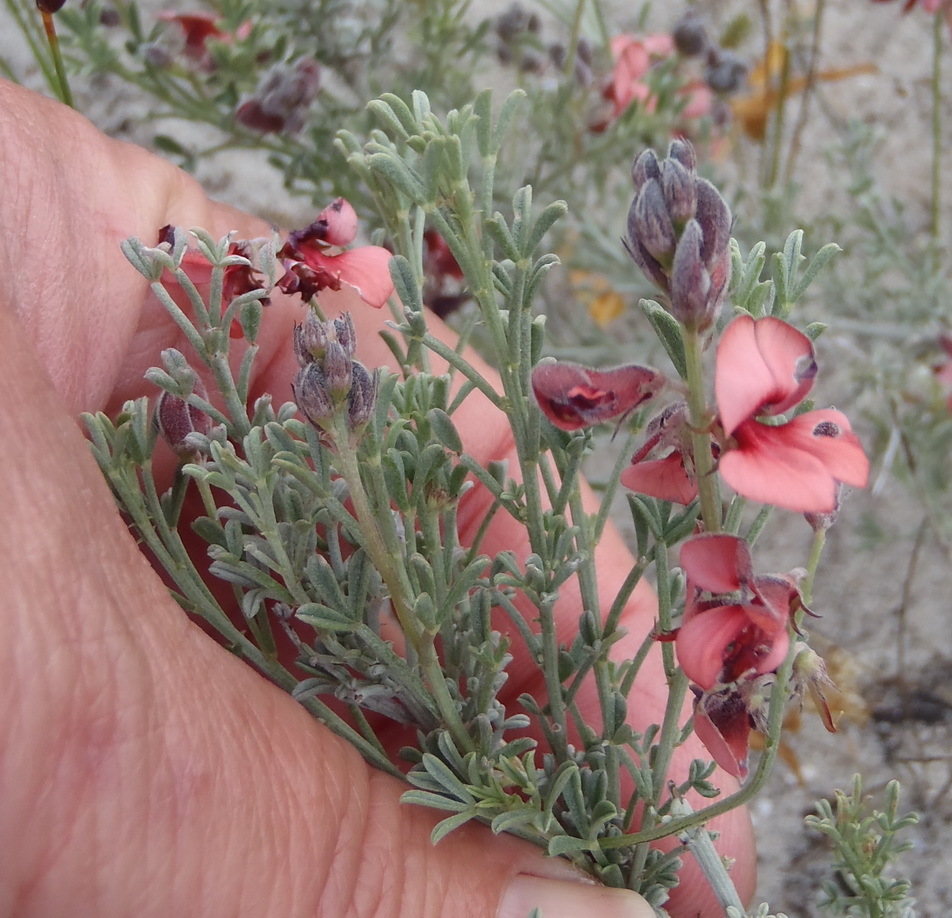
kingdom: Plantae
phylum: Tracheophyta
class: Magnoliopsida
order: Fabales
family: Fabaceae
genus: Indigofera
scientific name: Indigofera
